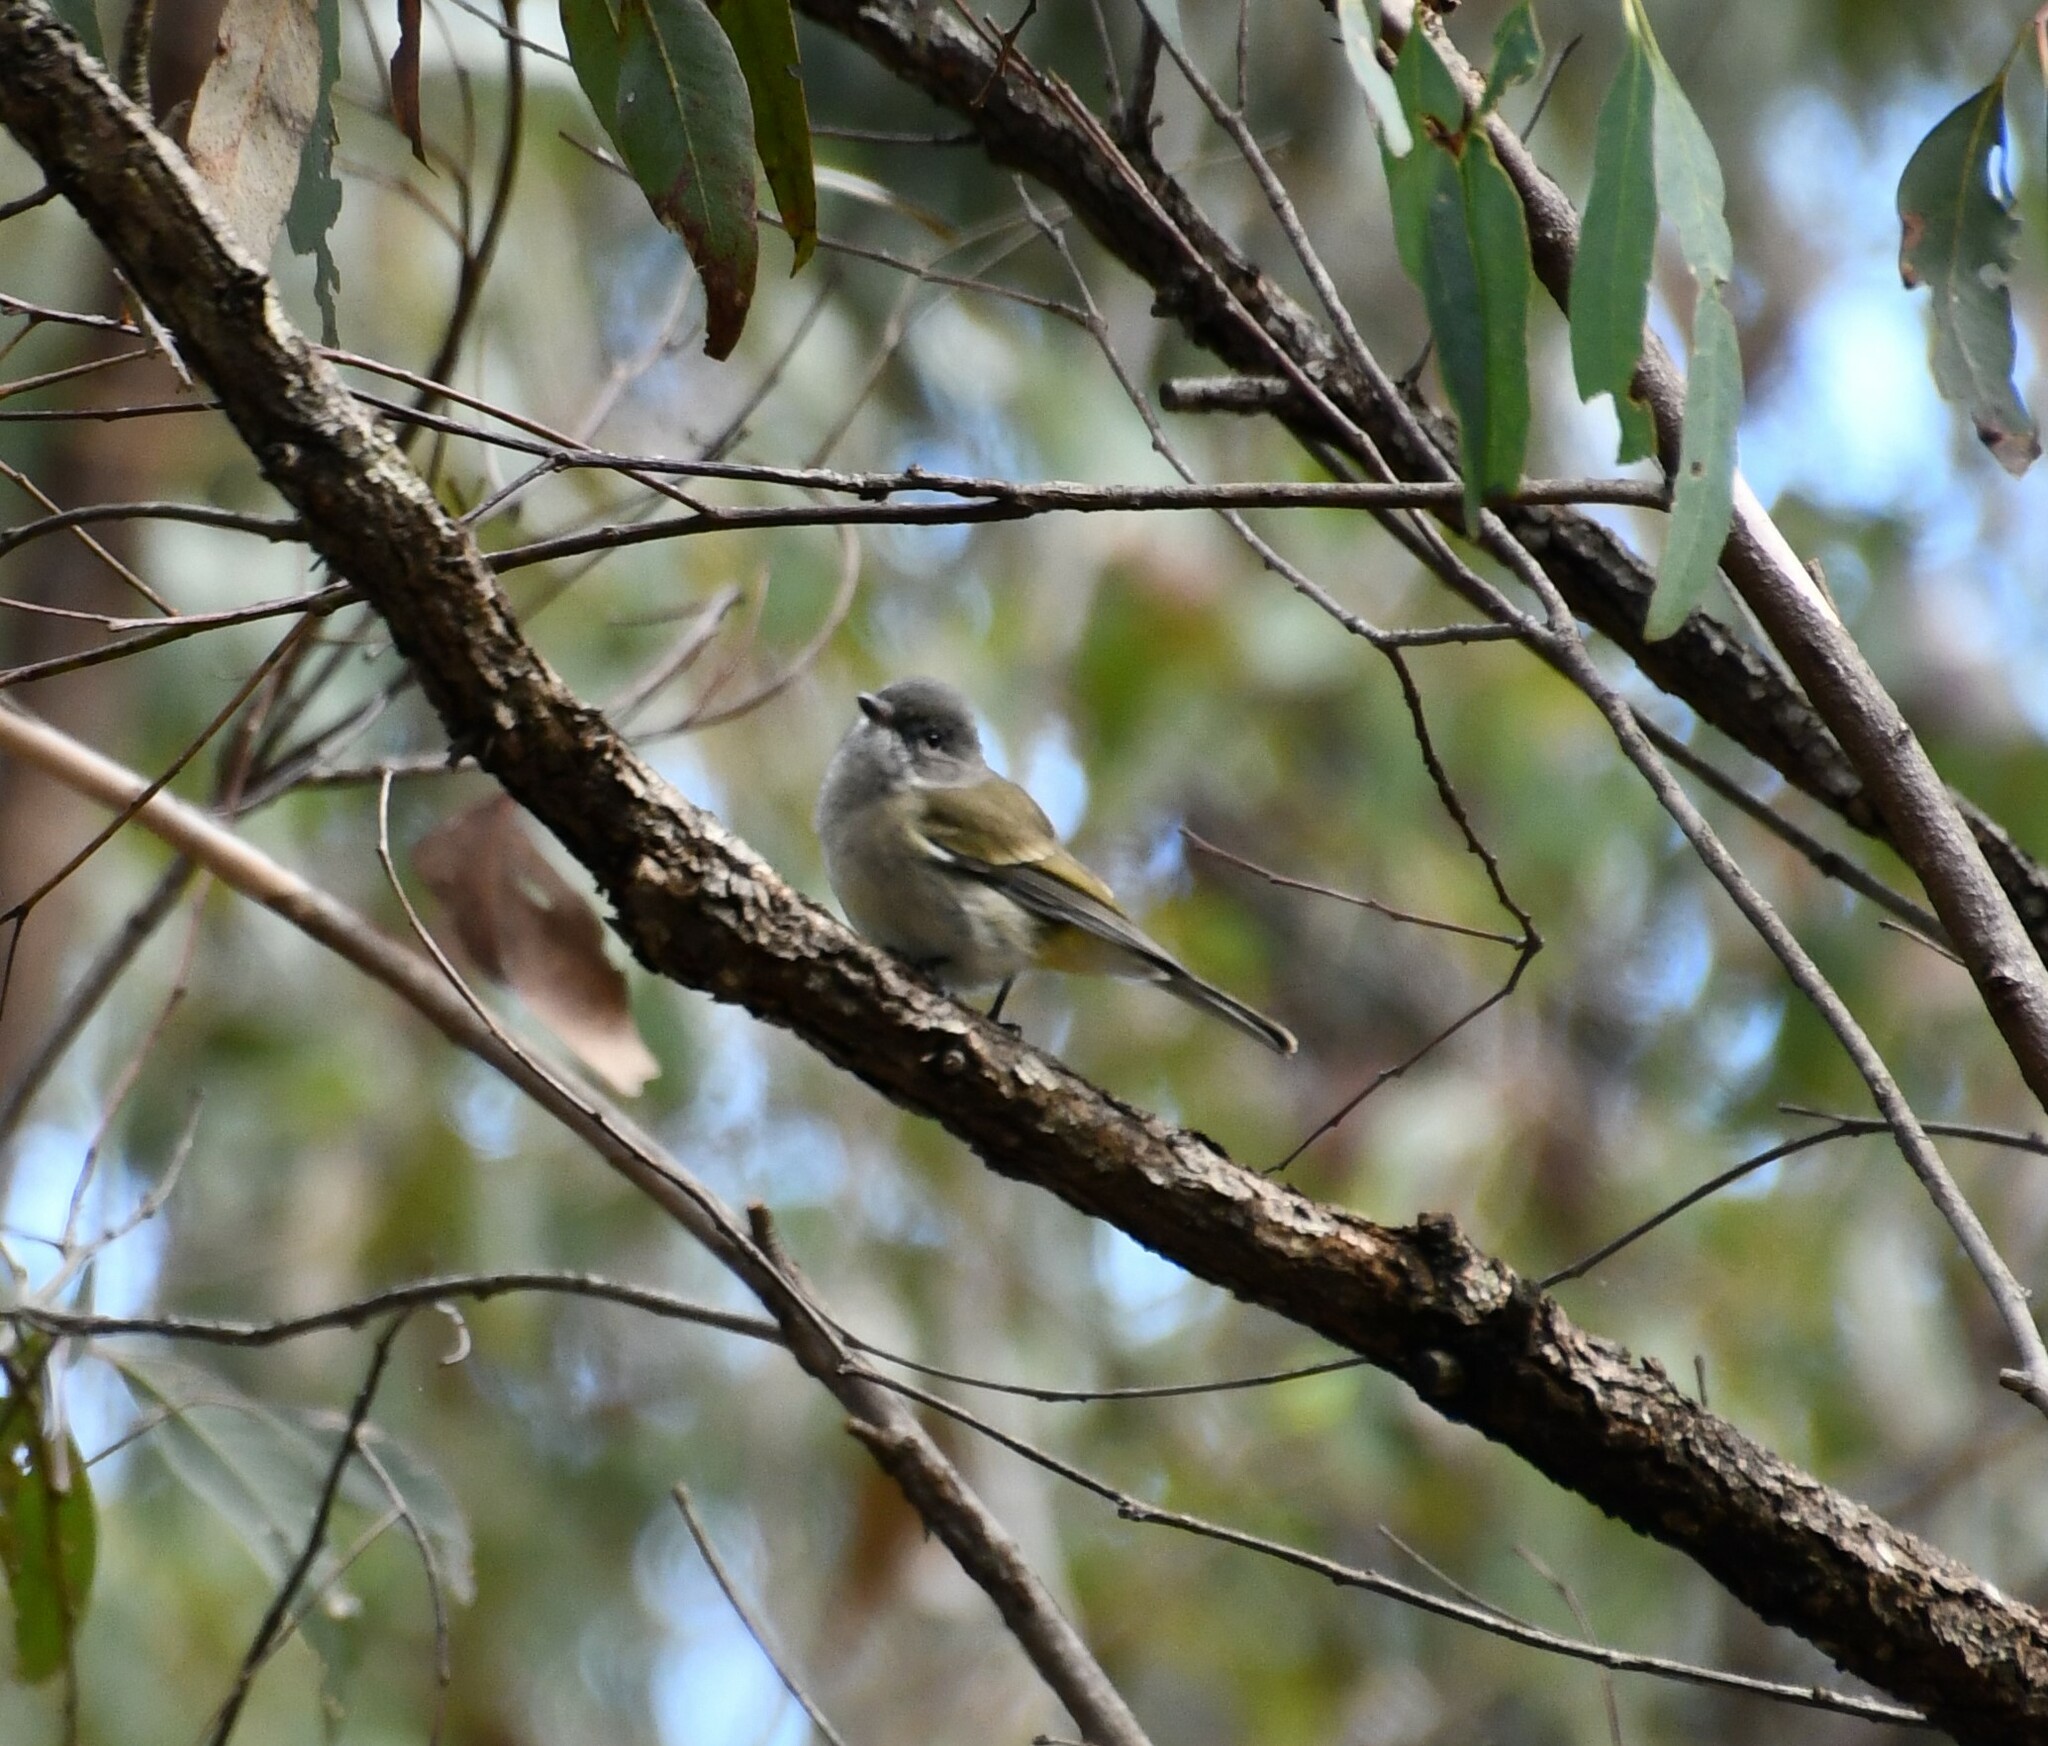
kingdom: Animalia
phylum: Chordata
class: Aves
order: Passeriformes
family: Pachycephalidae
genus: Pachycephala
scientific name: Pachycephala pectoralis
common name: Australian golden whistler
